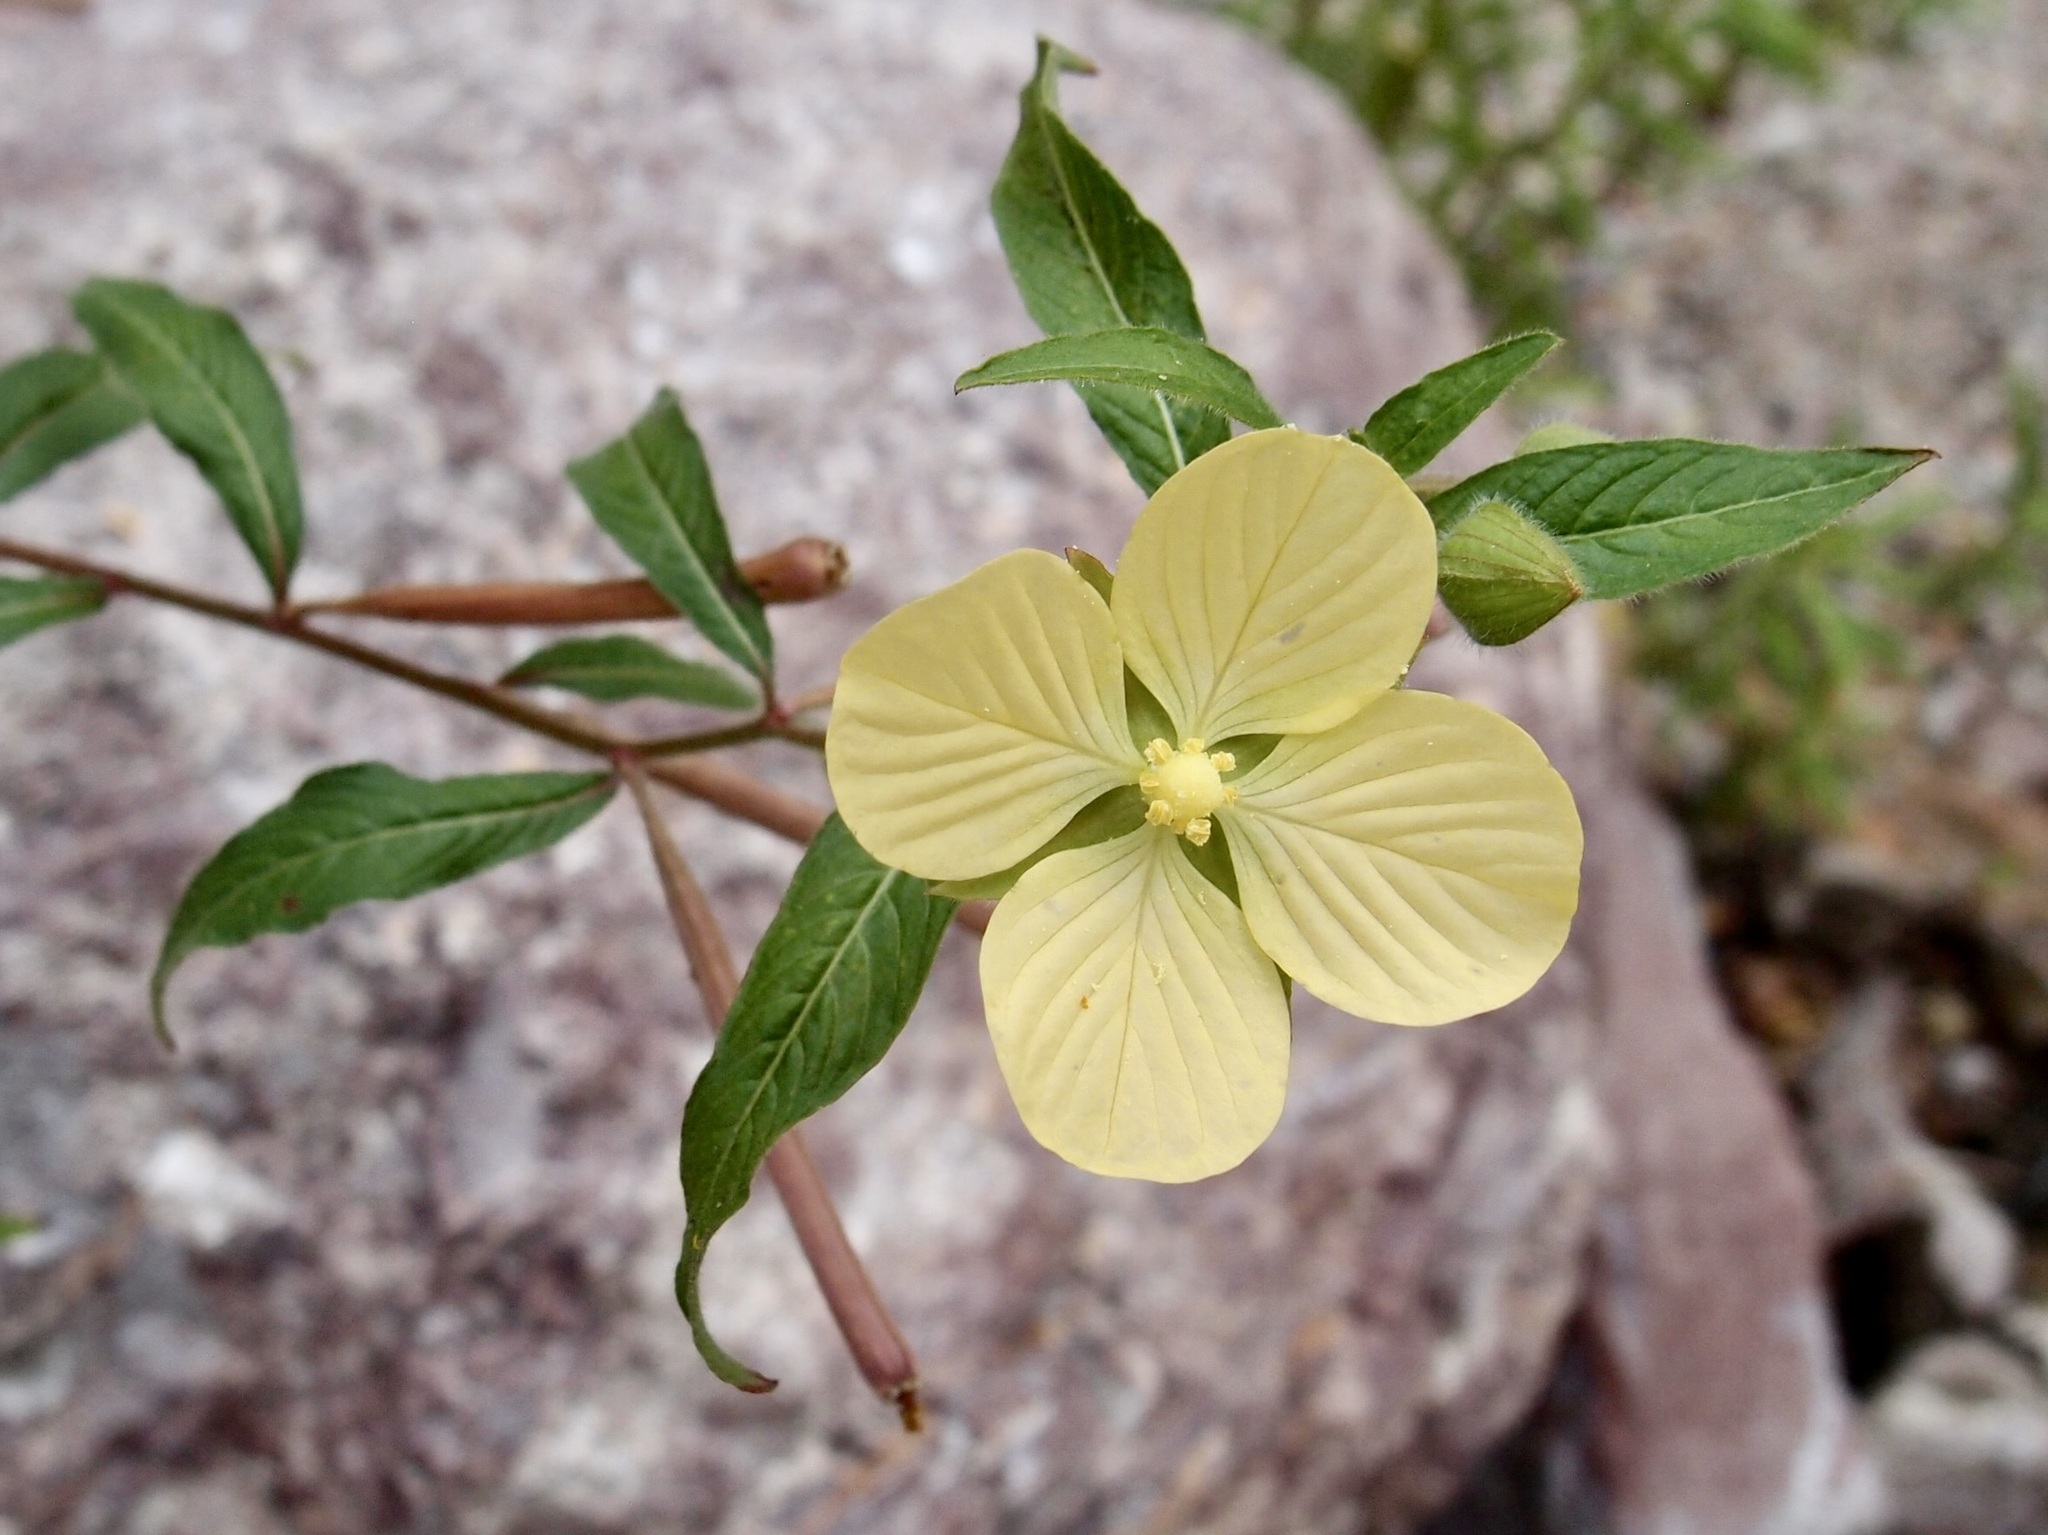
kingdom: Plantae
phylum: Tracheophyta
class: Magnoliopsida
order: Myrtales
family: Onagraceae
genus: Ludwigia
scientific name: Ludwigia octovalvis
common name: Water-primrose
